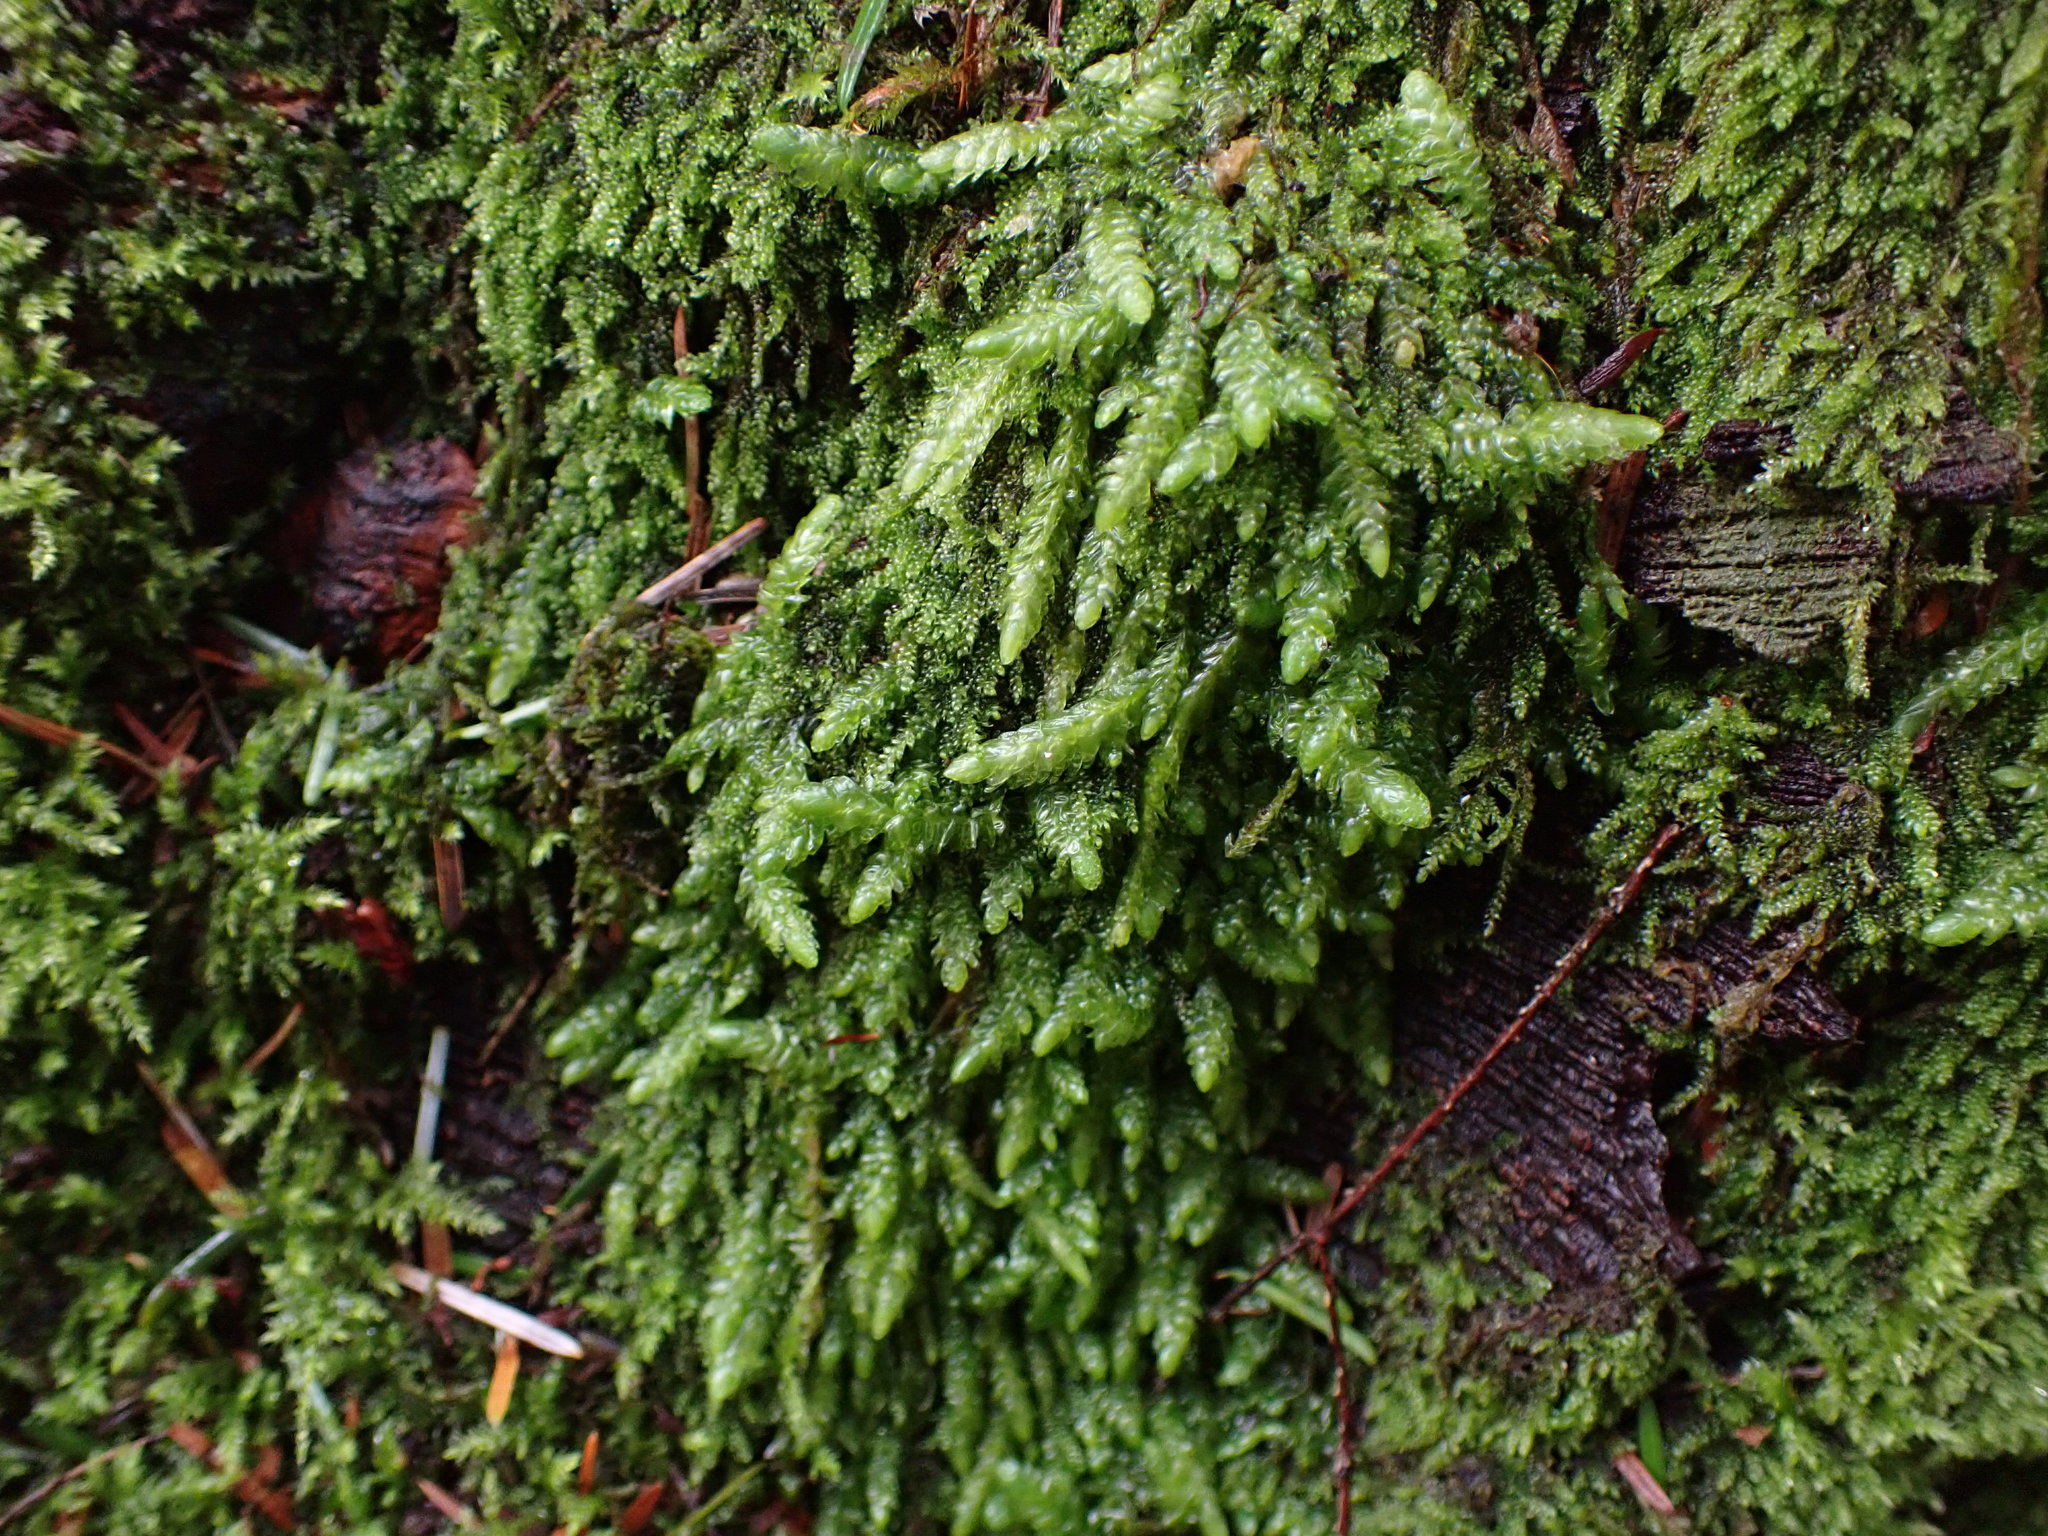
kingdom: Plantae
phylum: Bryophyta
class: Bryopsida
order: Hypnales
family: Plagiotheciaceae
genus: Plagiothecium
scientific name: Plagiothecium undulatum
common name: Waved silk-moss
